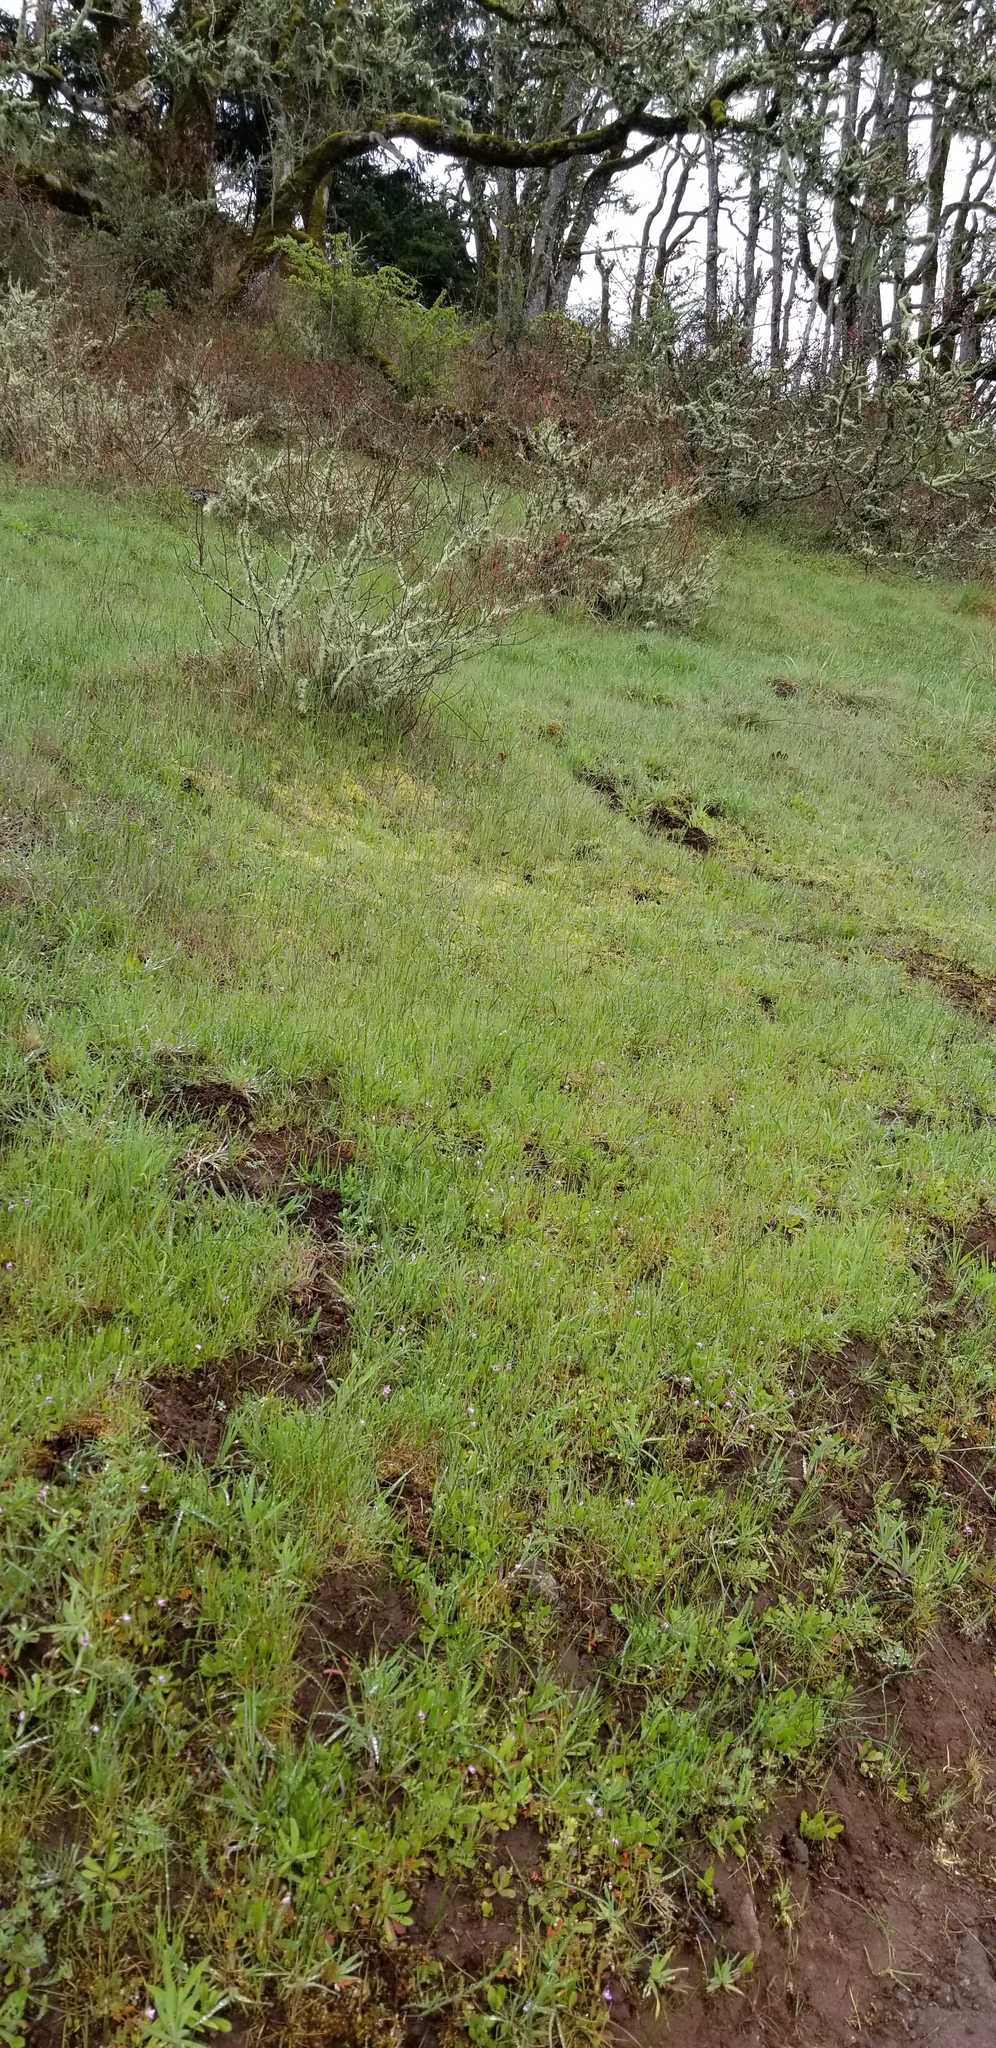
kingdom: Plantae
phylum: Tracheophyta
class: Magnoliopsida
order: Asterales
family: Asteraceae
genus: Madia
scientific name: Madia elegans
